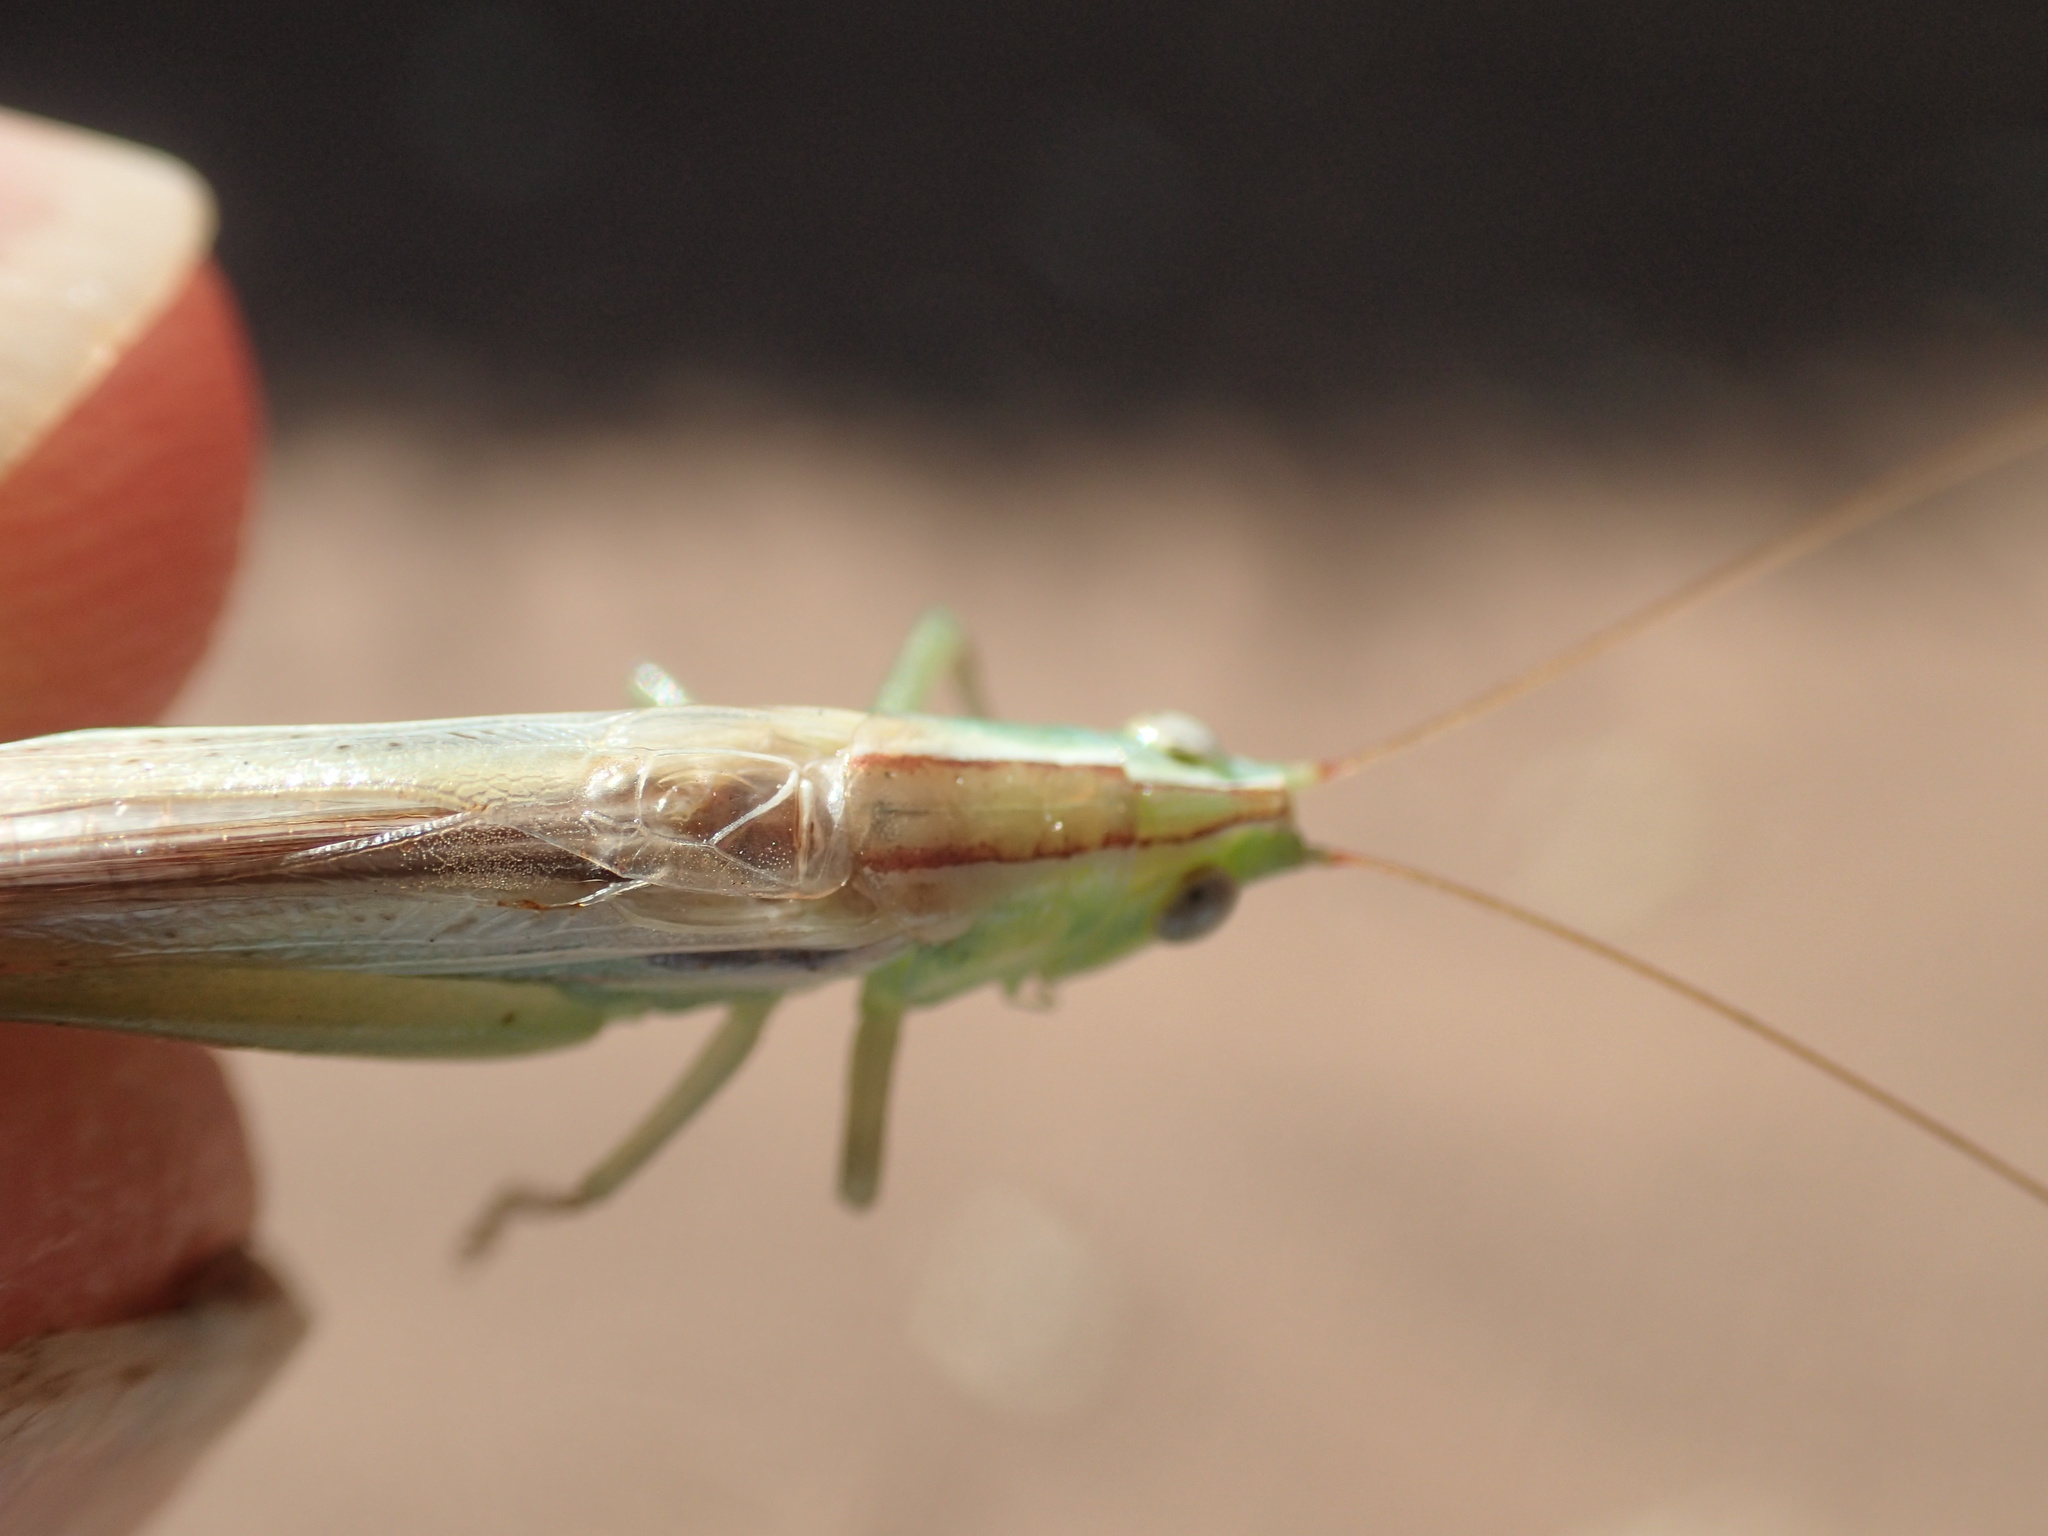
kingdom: Animalia
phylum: Arthropoda
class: Insecta
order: Orthoptera
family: Tettigoniidae
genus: Conocephalus
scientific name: Conocephalus upoluensis
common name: Upolu meadow katydid
